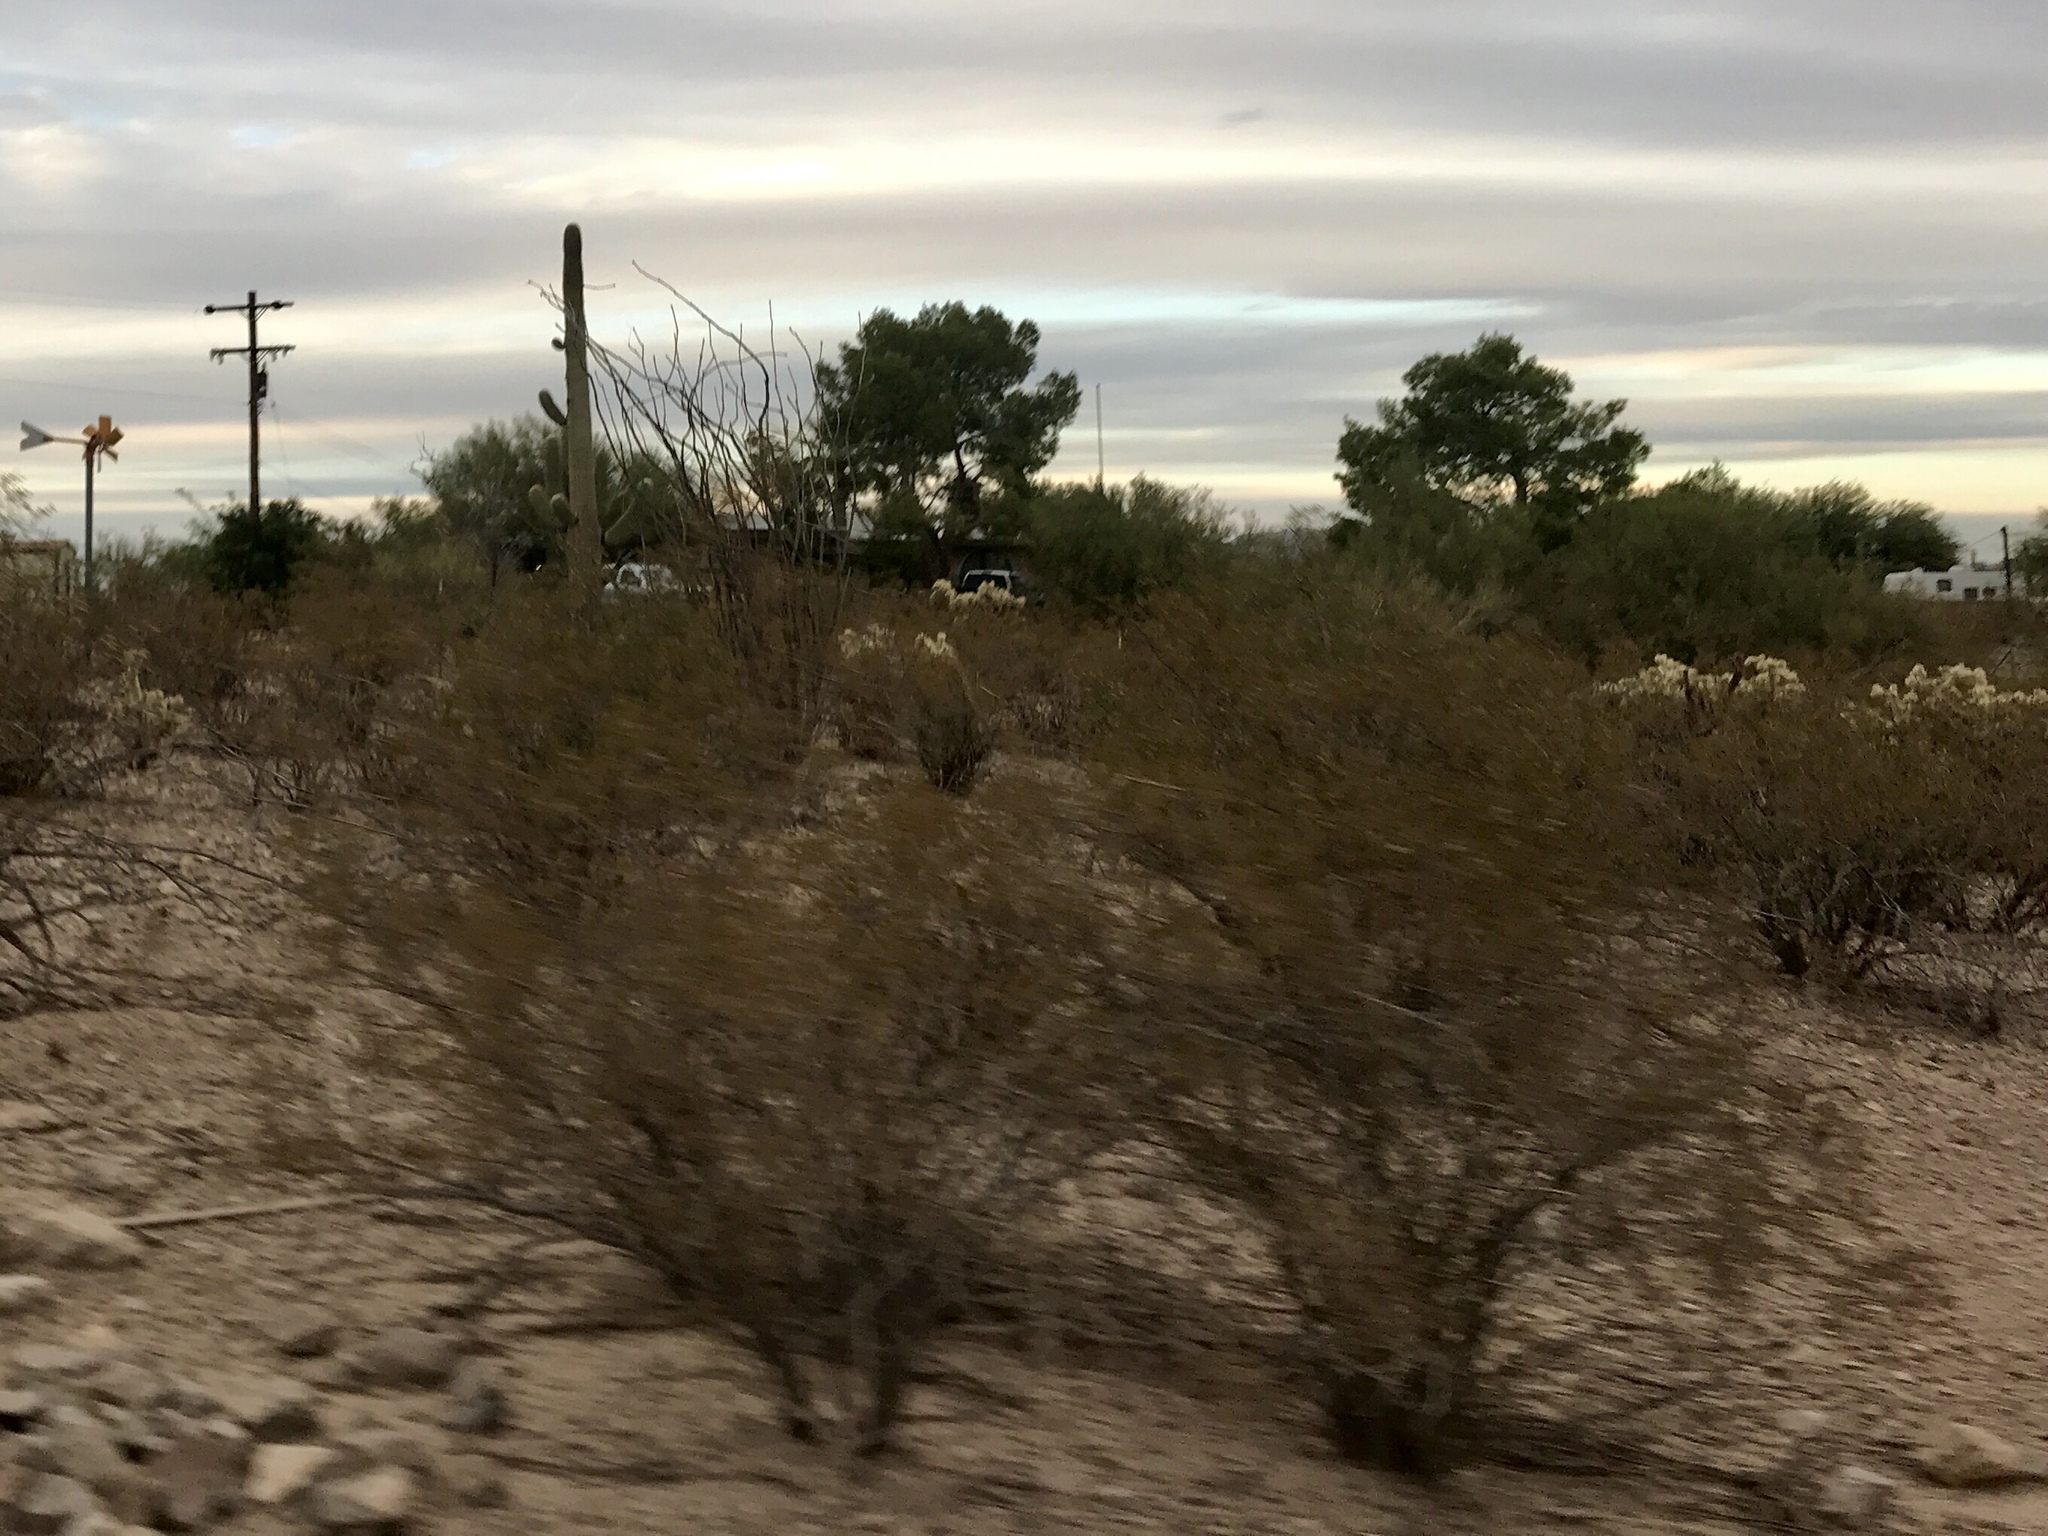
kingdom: Plantae
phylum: Tracheophyta
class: Magnoliopsida
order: Zygophyllales
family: Zygophyllaceae
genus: Larrea
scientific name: Larrea tridentata
